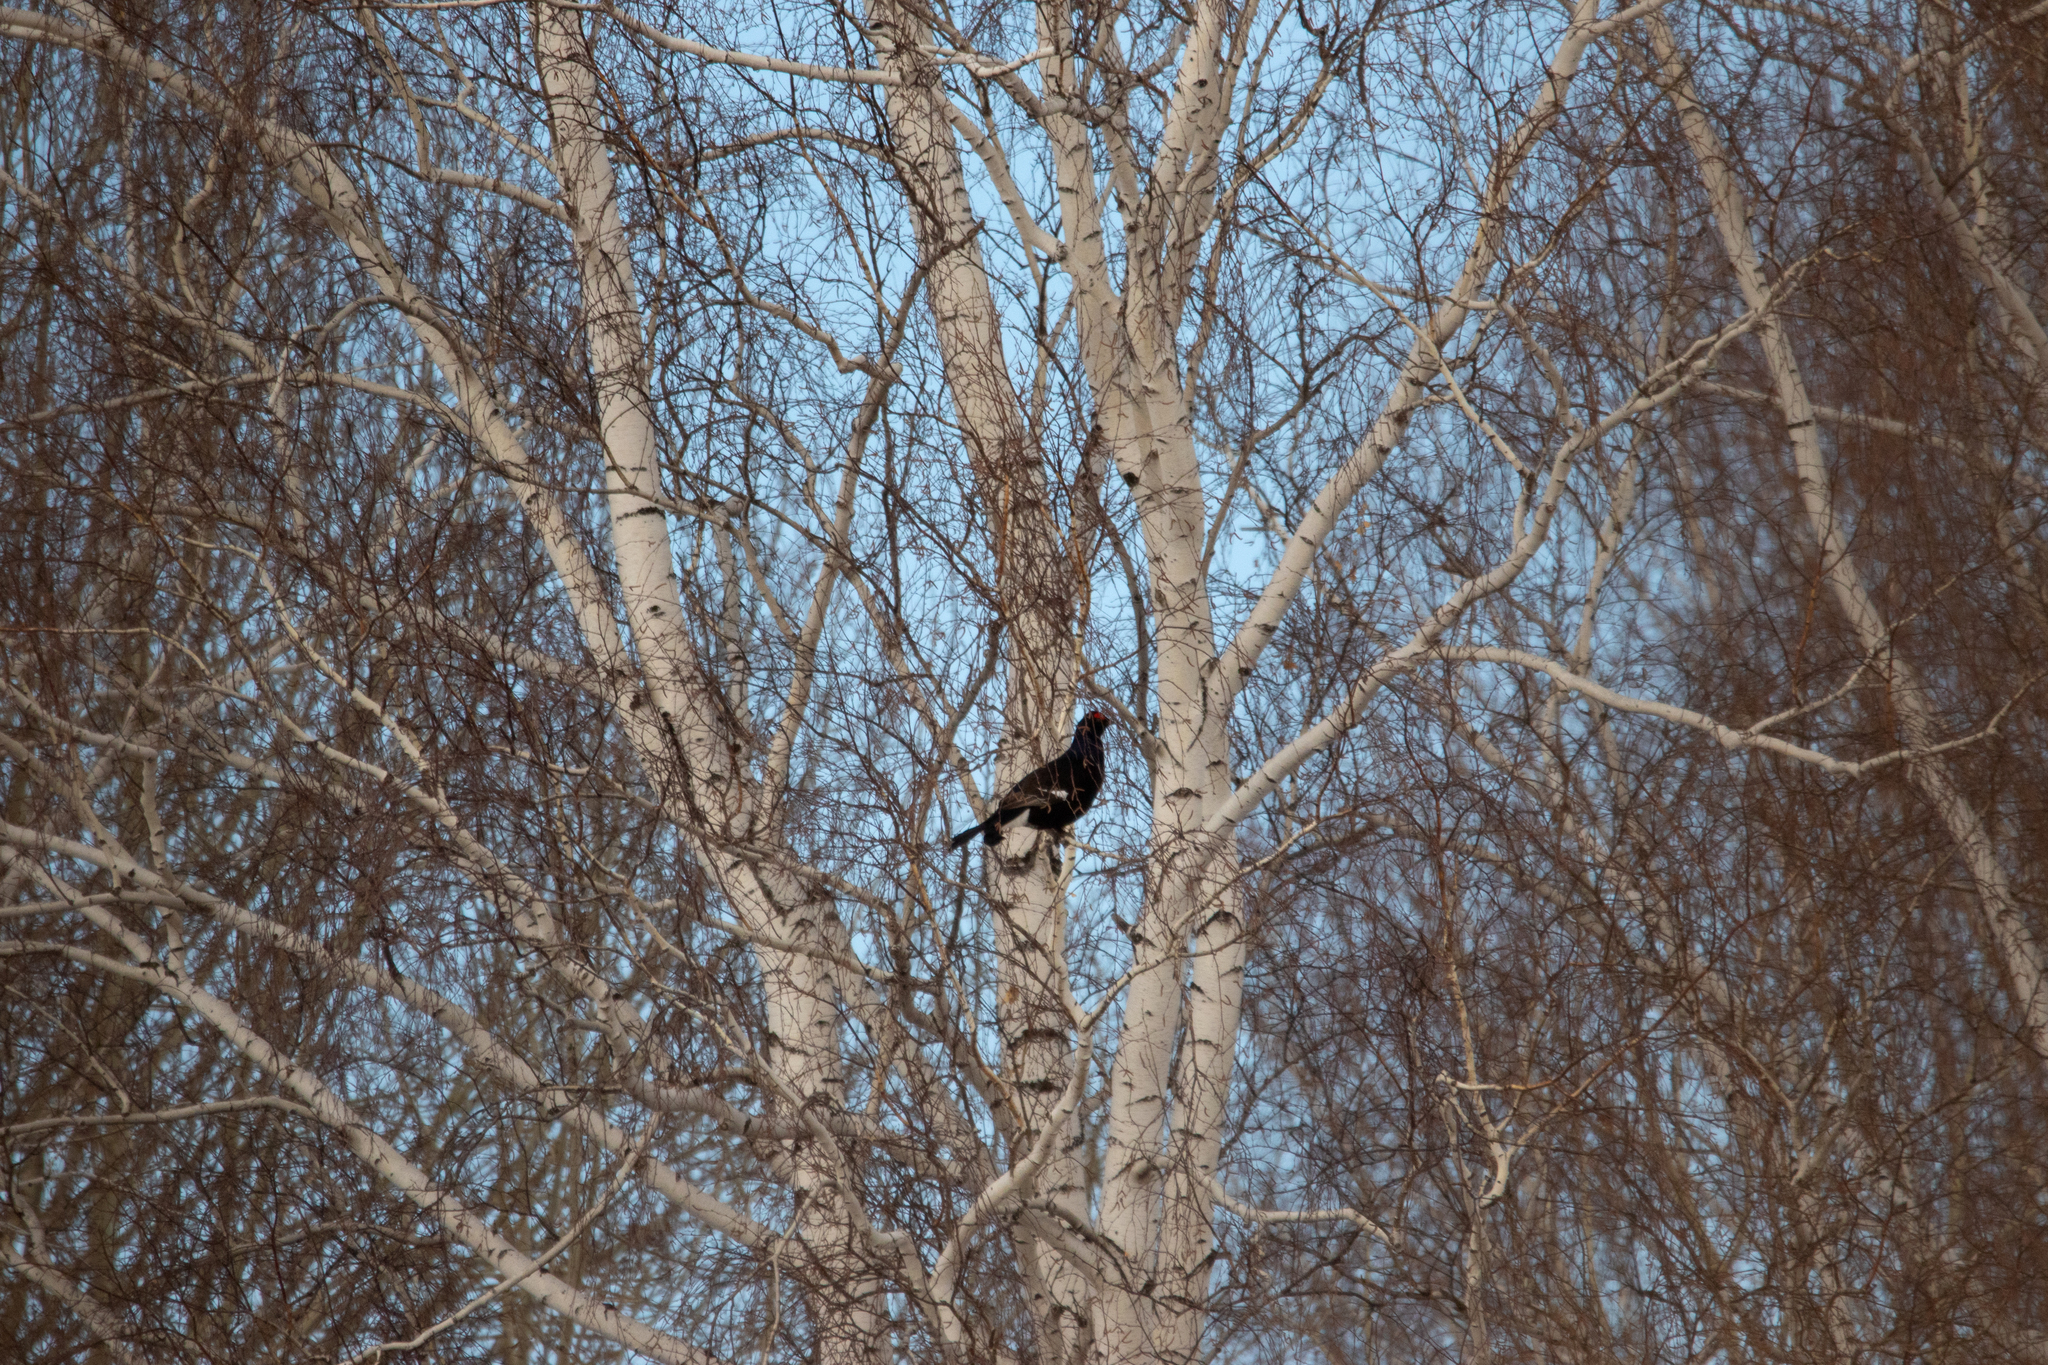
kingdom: Animalia
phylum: Chordata
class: Aves
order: Galliformes
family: Phasianidae
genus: Lyrurus
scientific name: Lyrurus tetrix
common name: Black grouse
